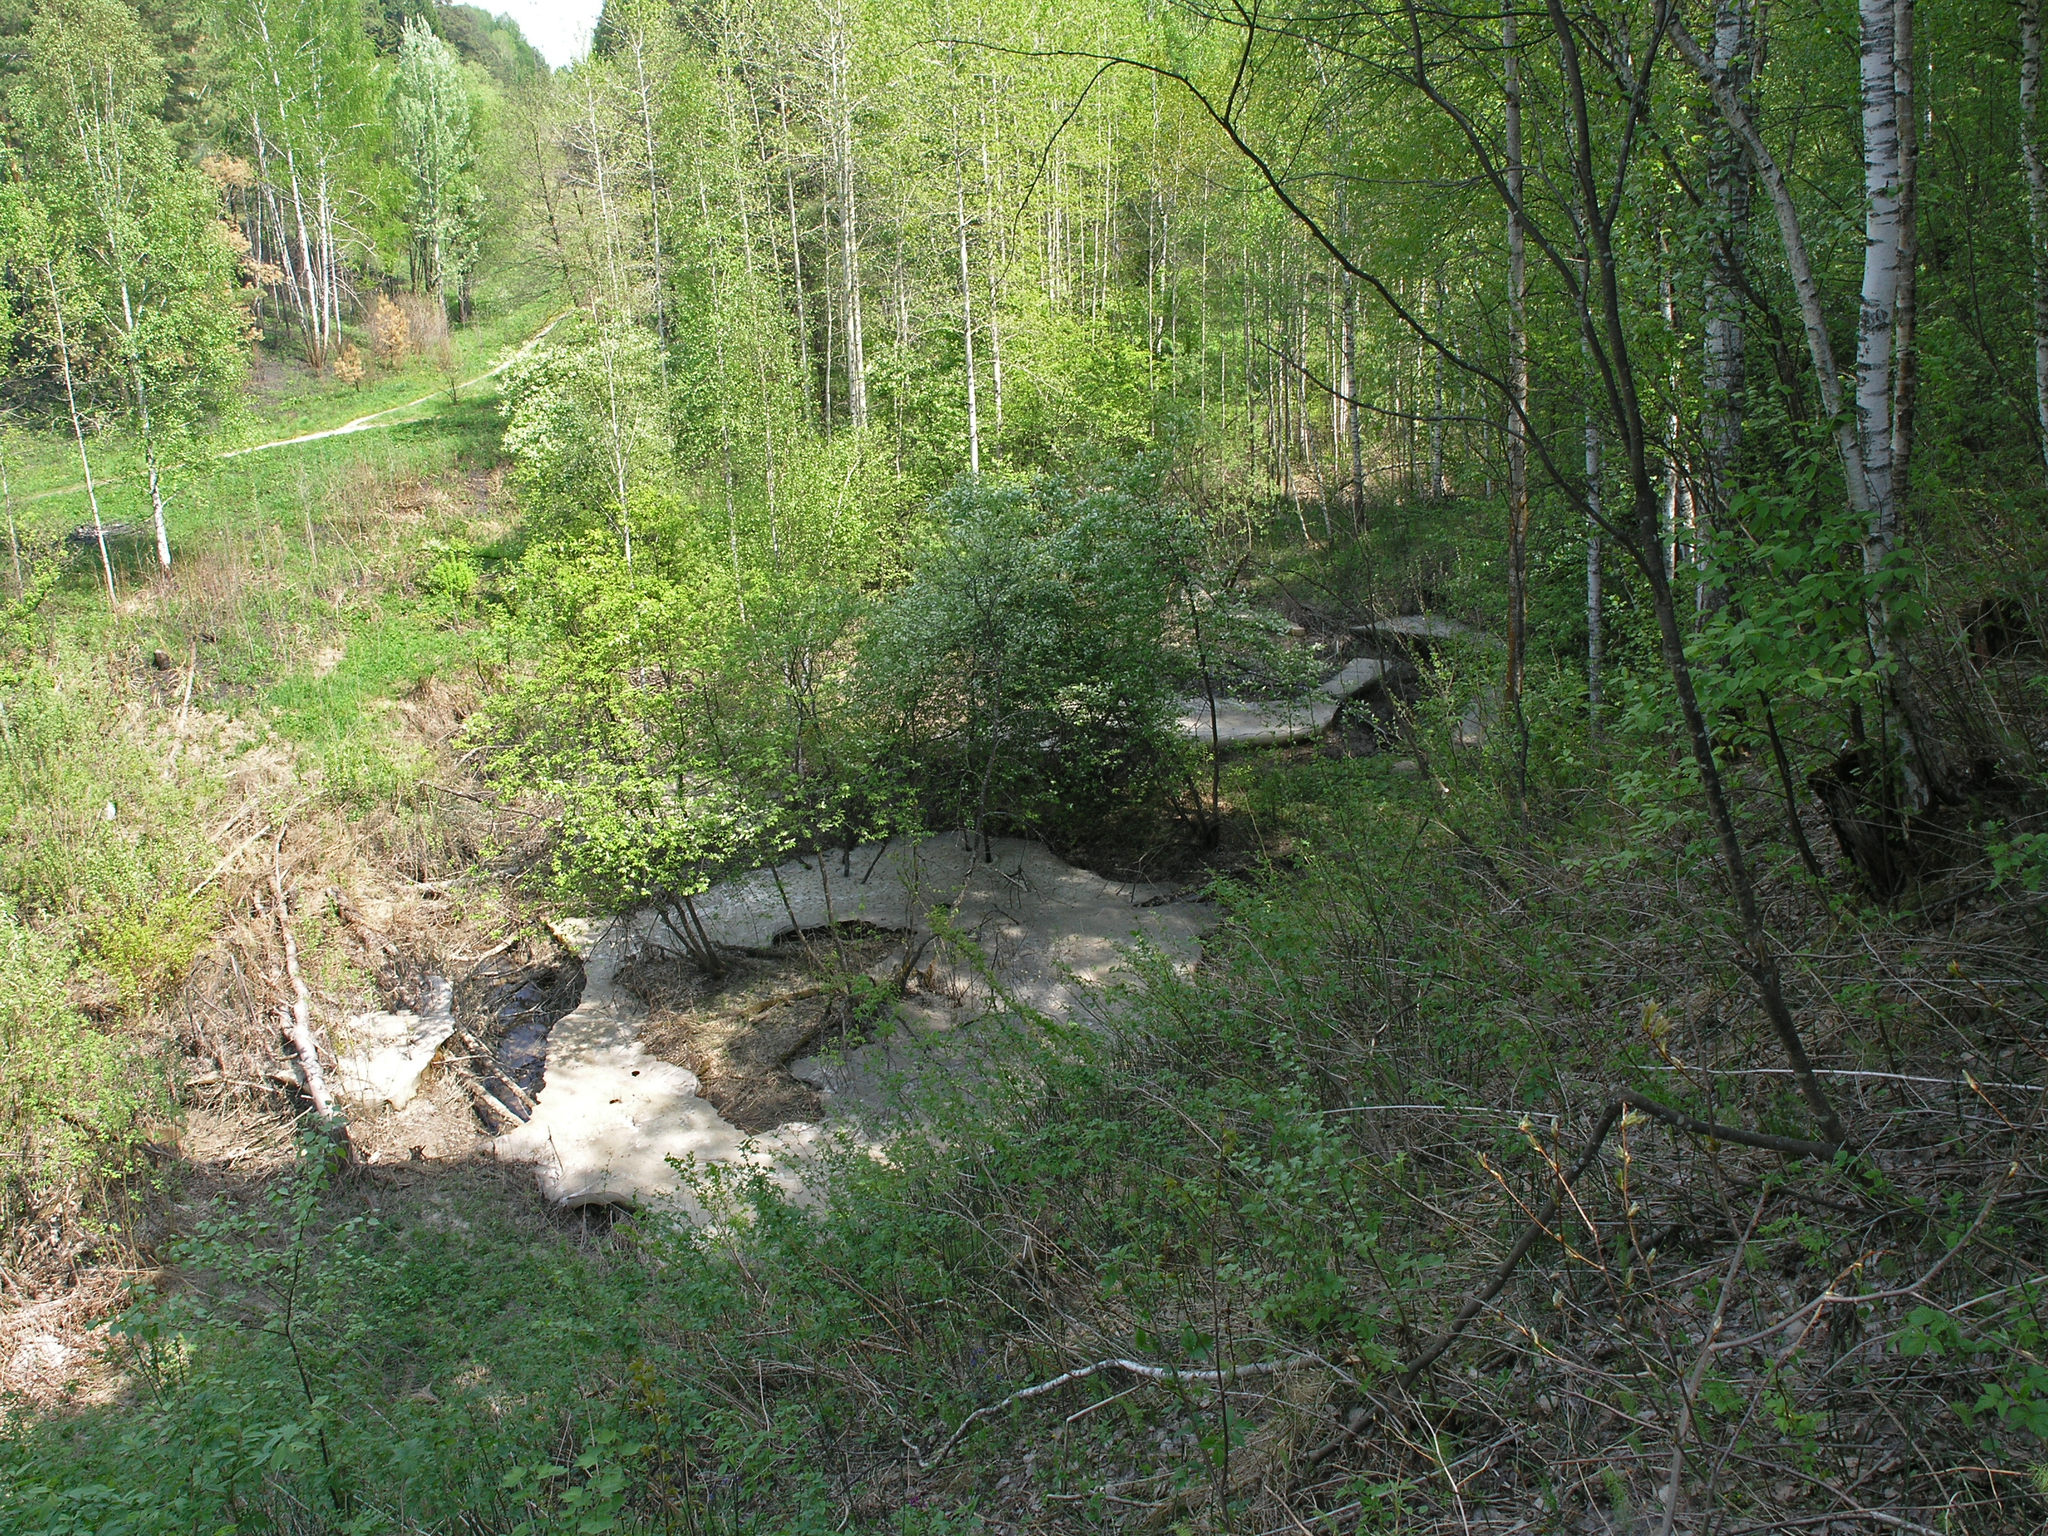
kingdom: Plantae
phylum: Tracheophyta
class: Magnoliopsida
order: Rosales
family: Rosaceae
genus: Rubus
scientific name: Rubus idaeus
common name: Raspberry
